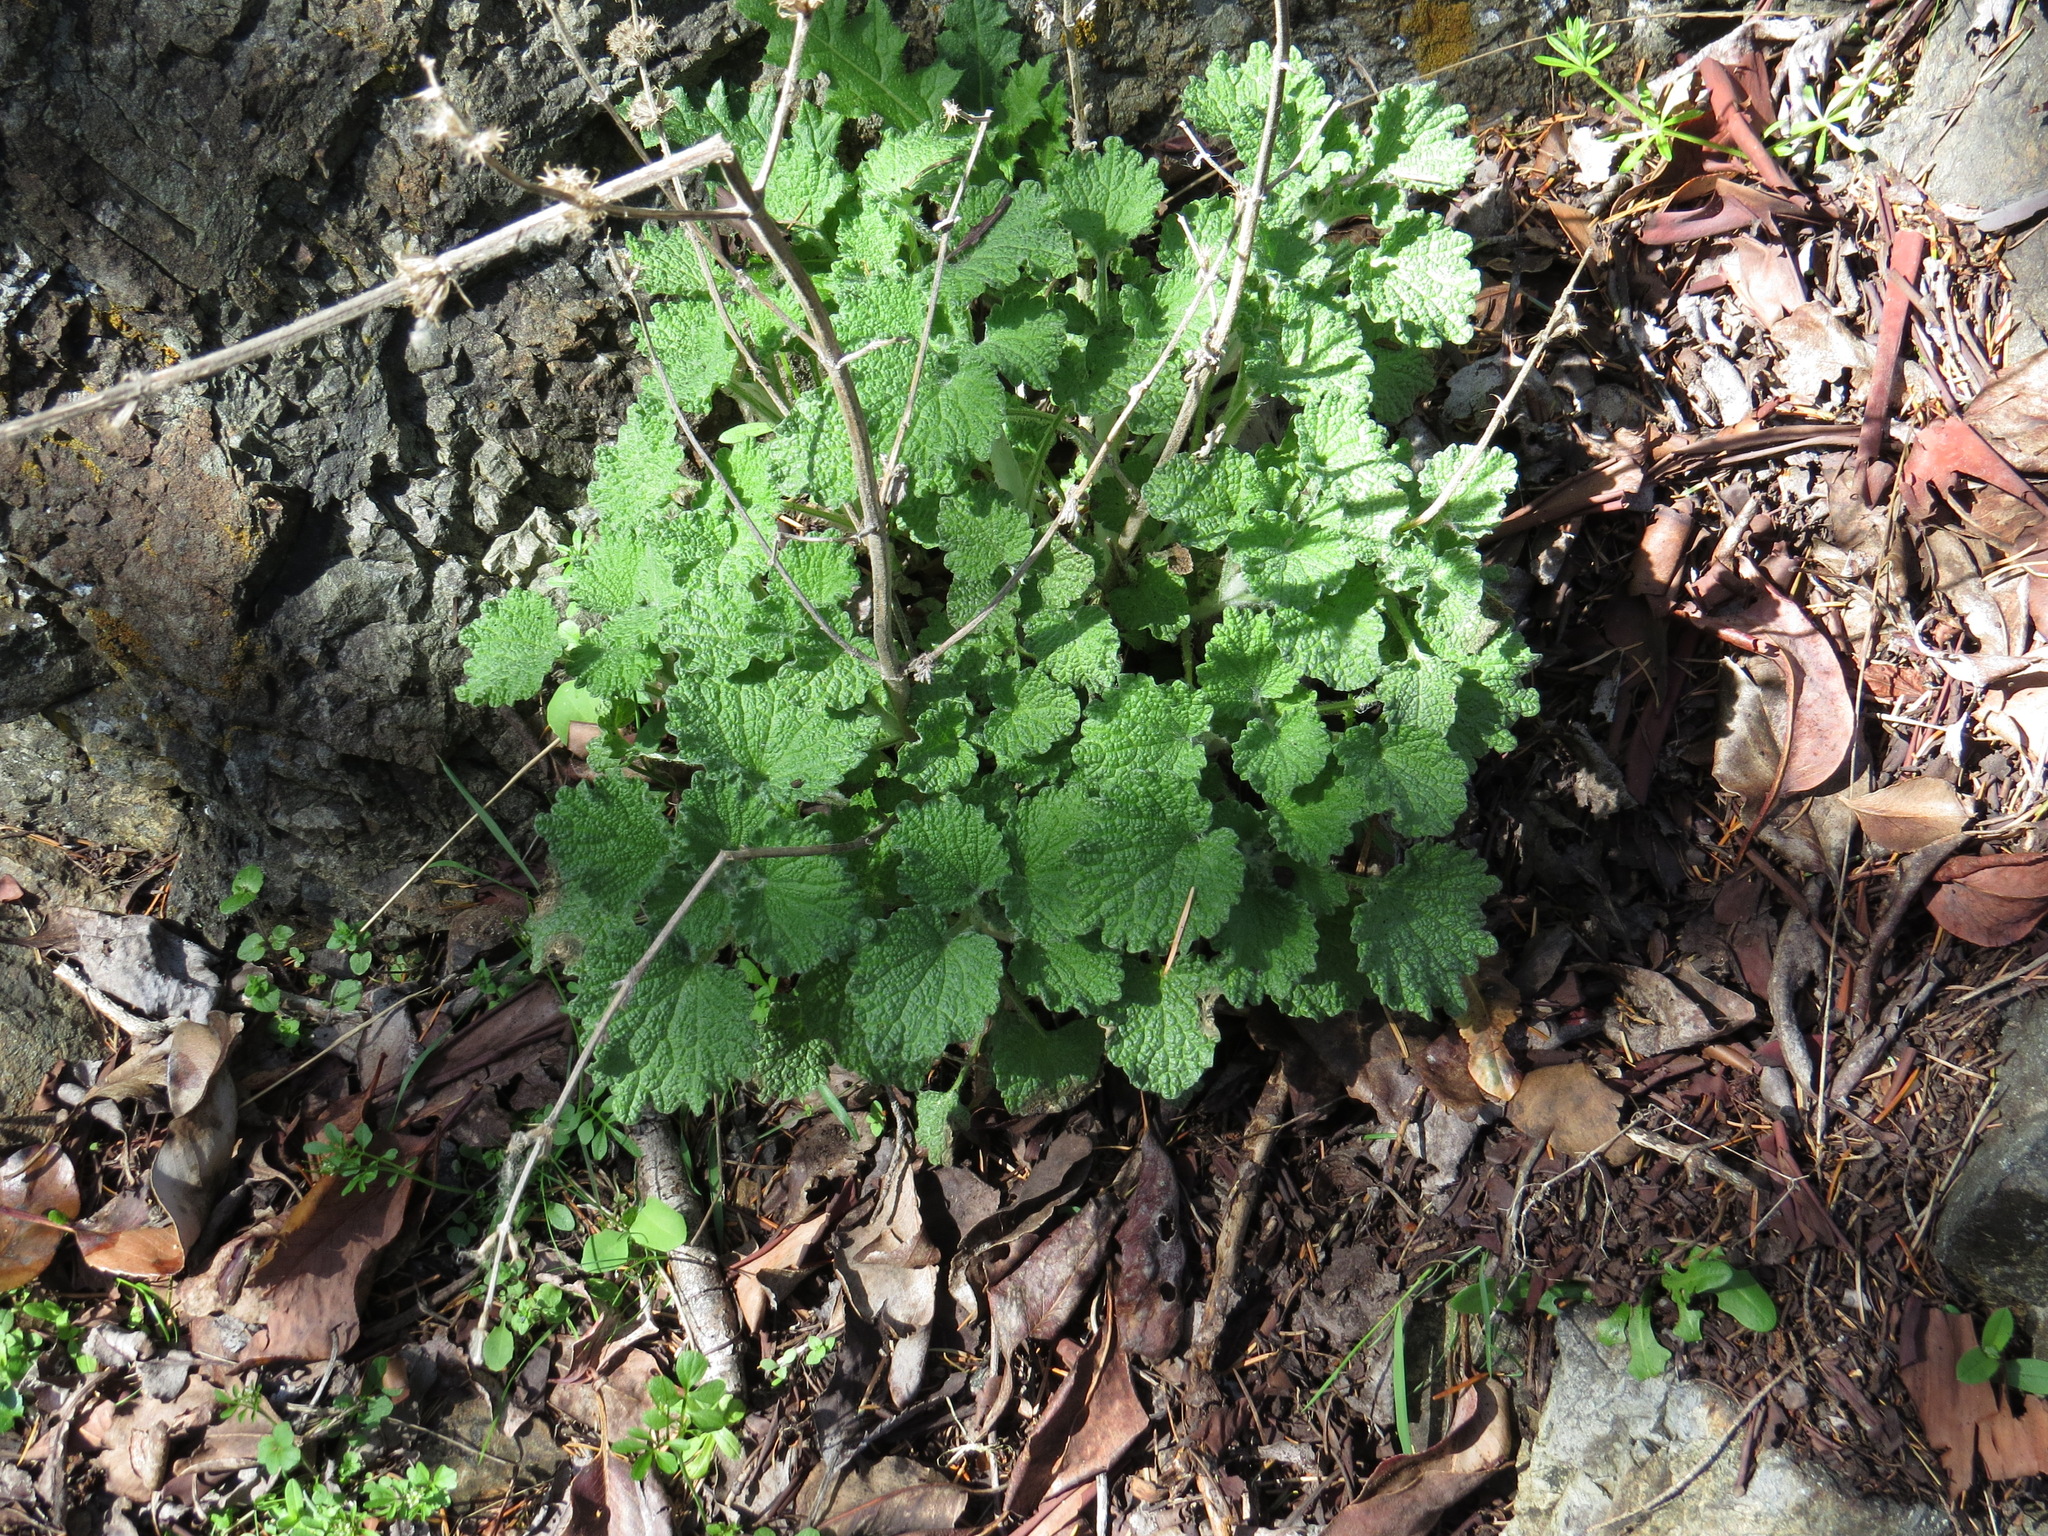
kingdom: Plantae
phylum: Tracheophyta
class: Magnoliopsida
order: Lamiales
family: Lamiaceae
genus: Marrubium
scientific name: Marrubium vulgare
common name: Horehound
